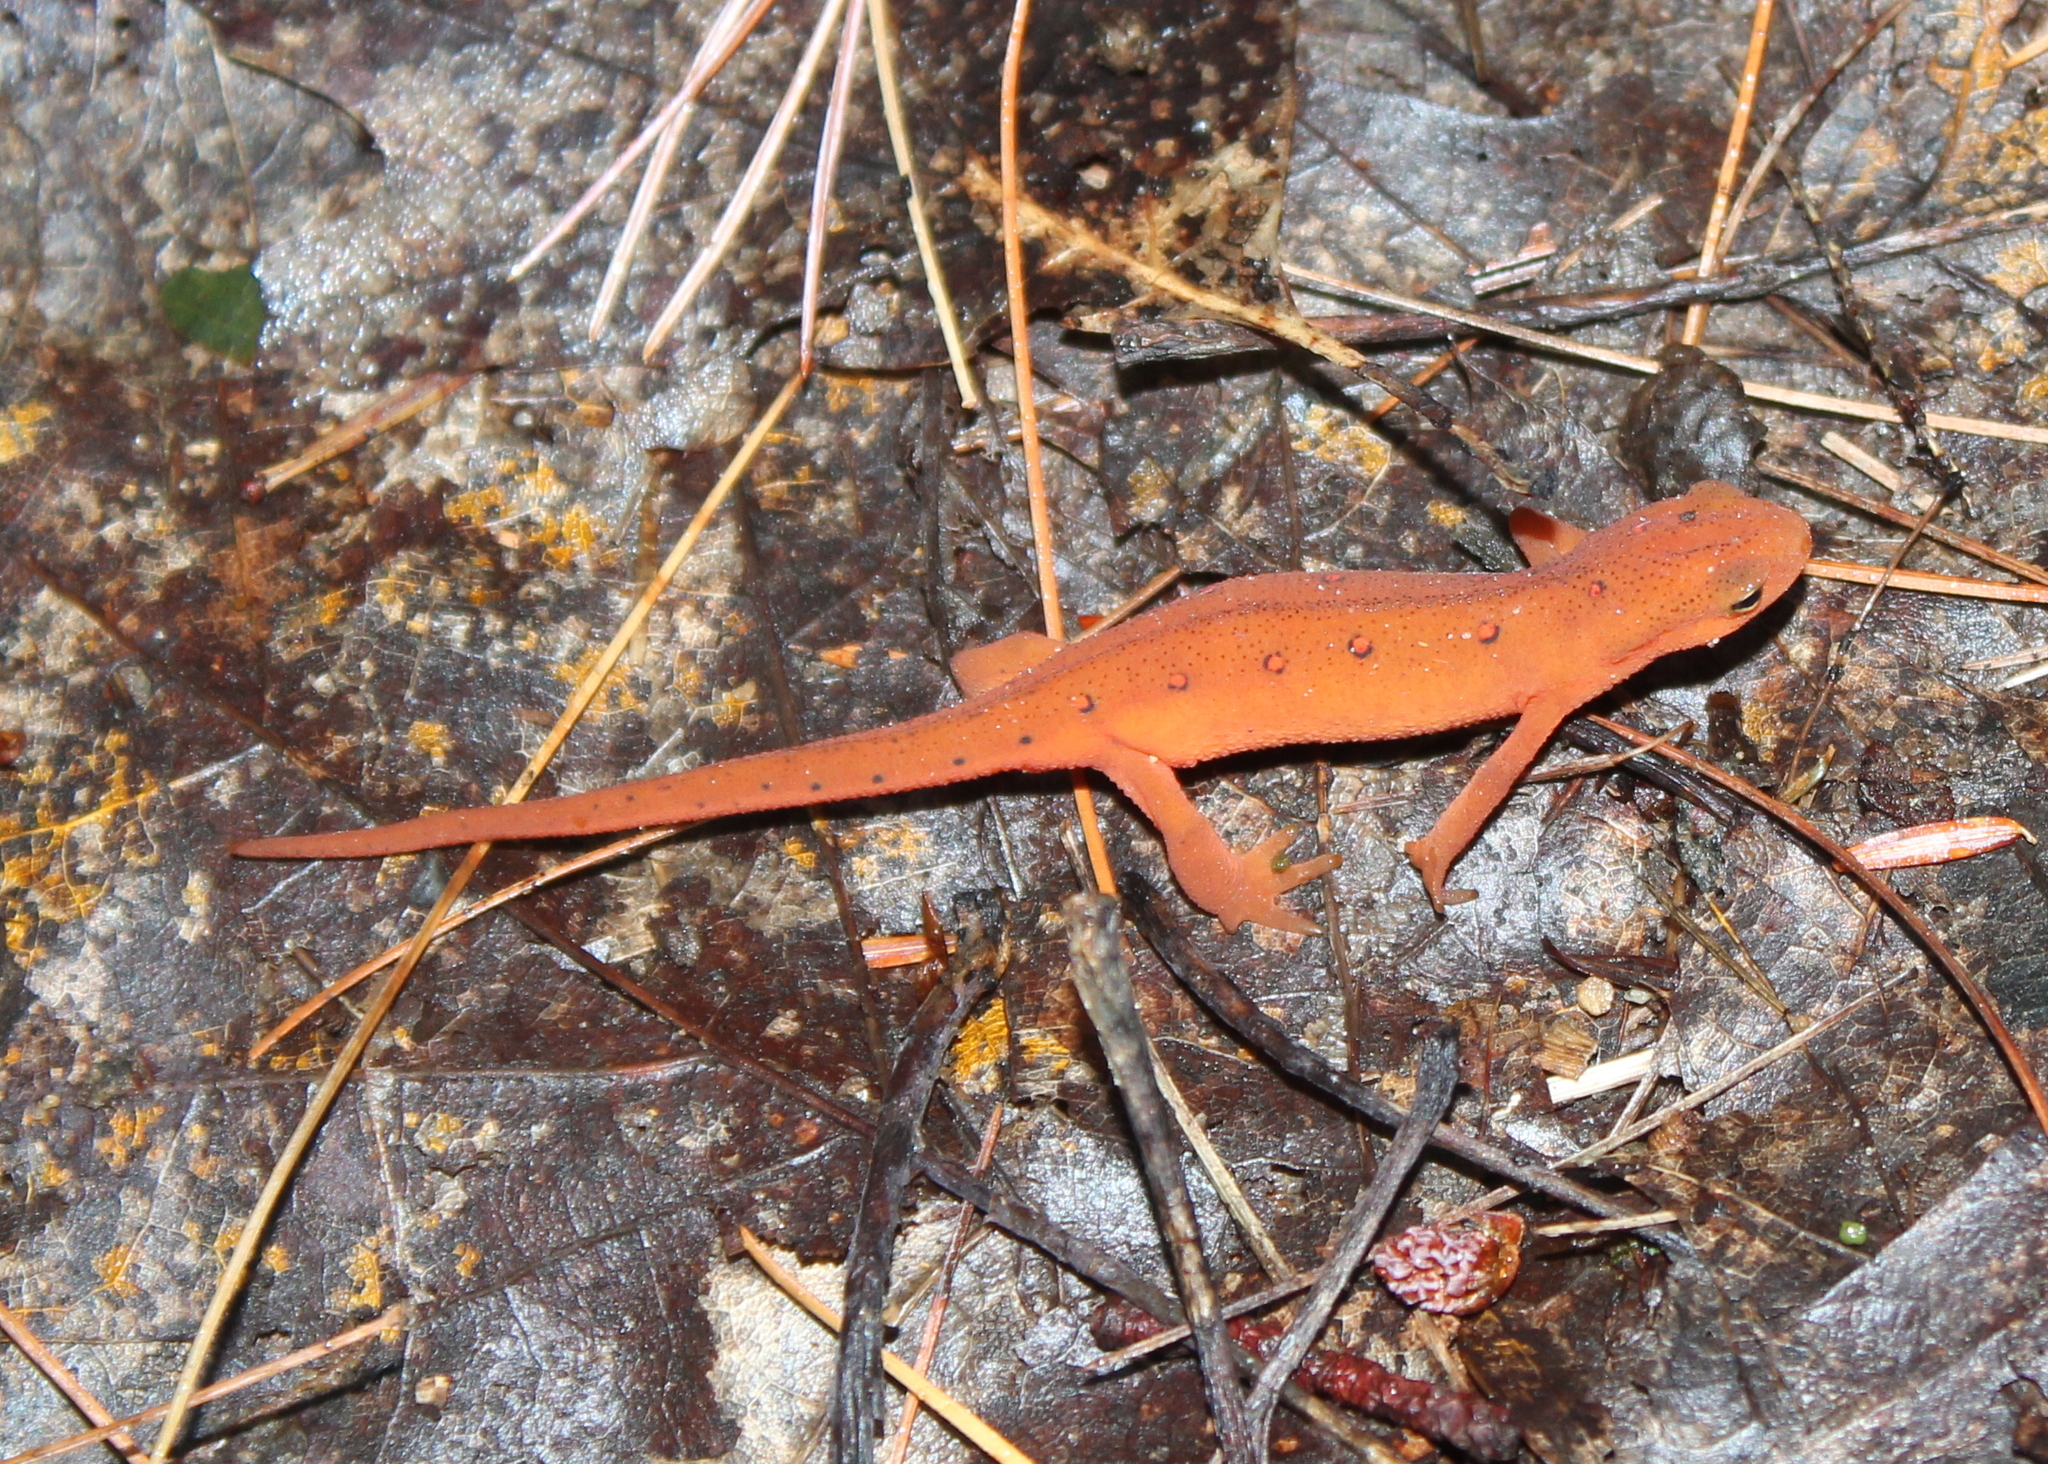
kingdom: Animalia
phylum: Chordata
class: Amphibia
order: Caudata
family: Salamandridae
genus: Notophthalmus
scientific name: Notophthalmus viridescens
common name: Eastern newt
